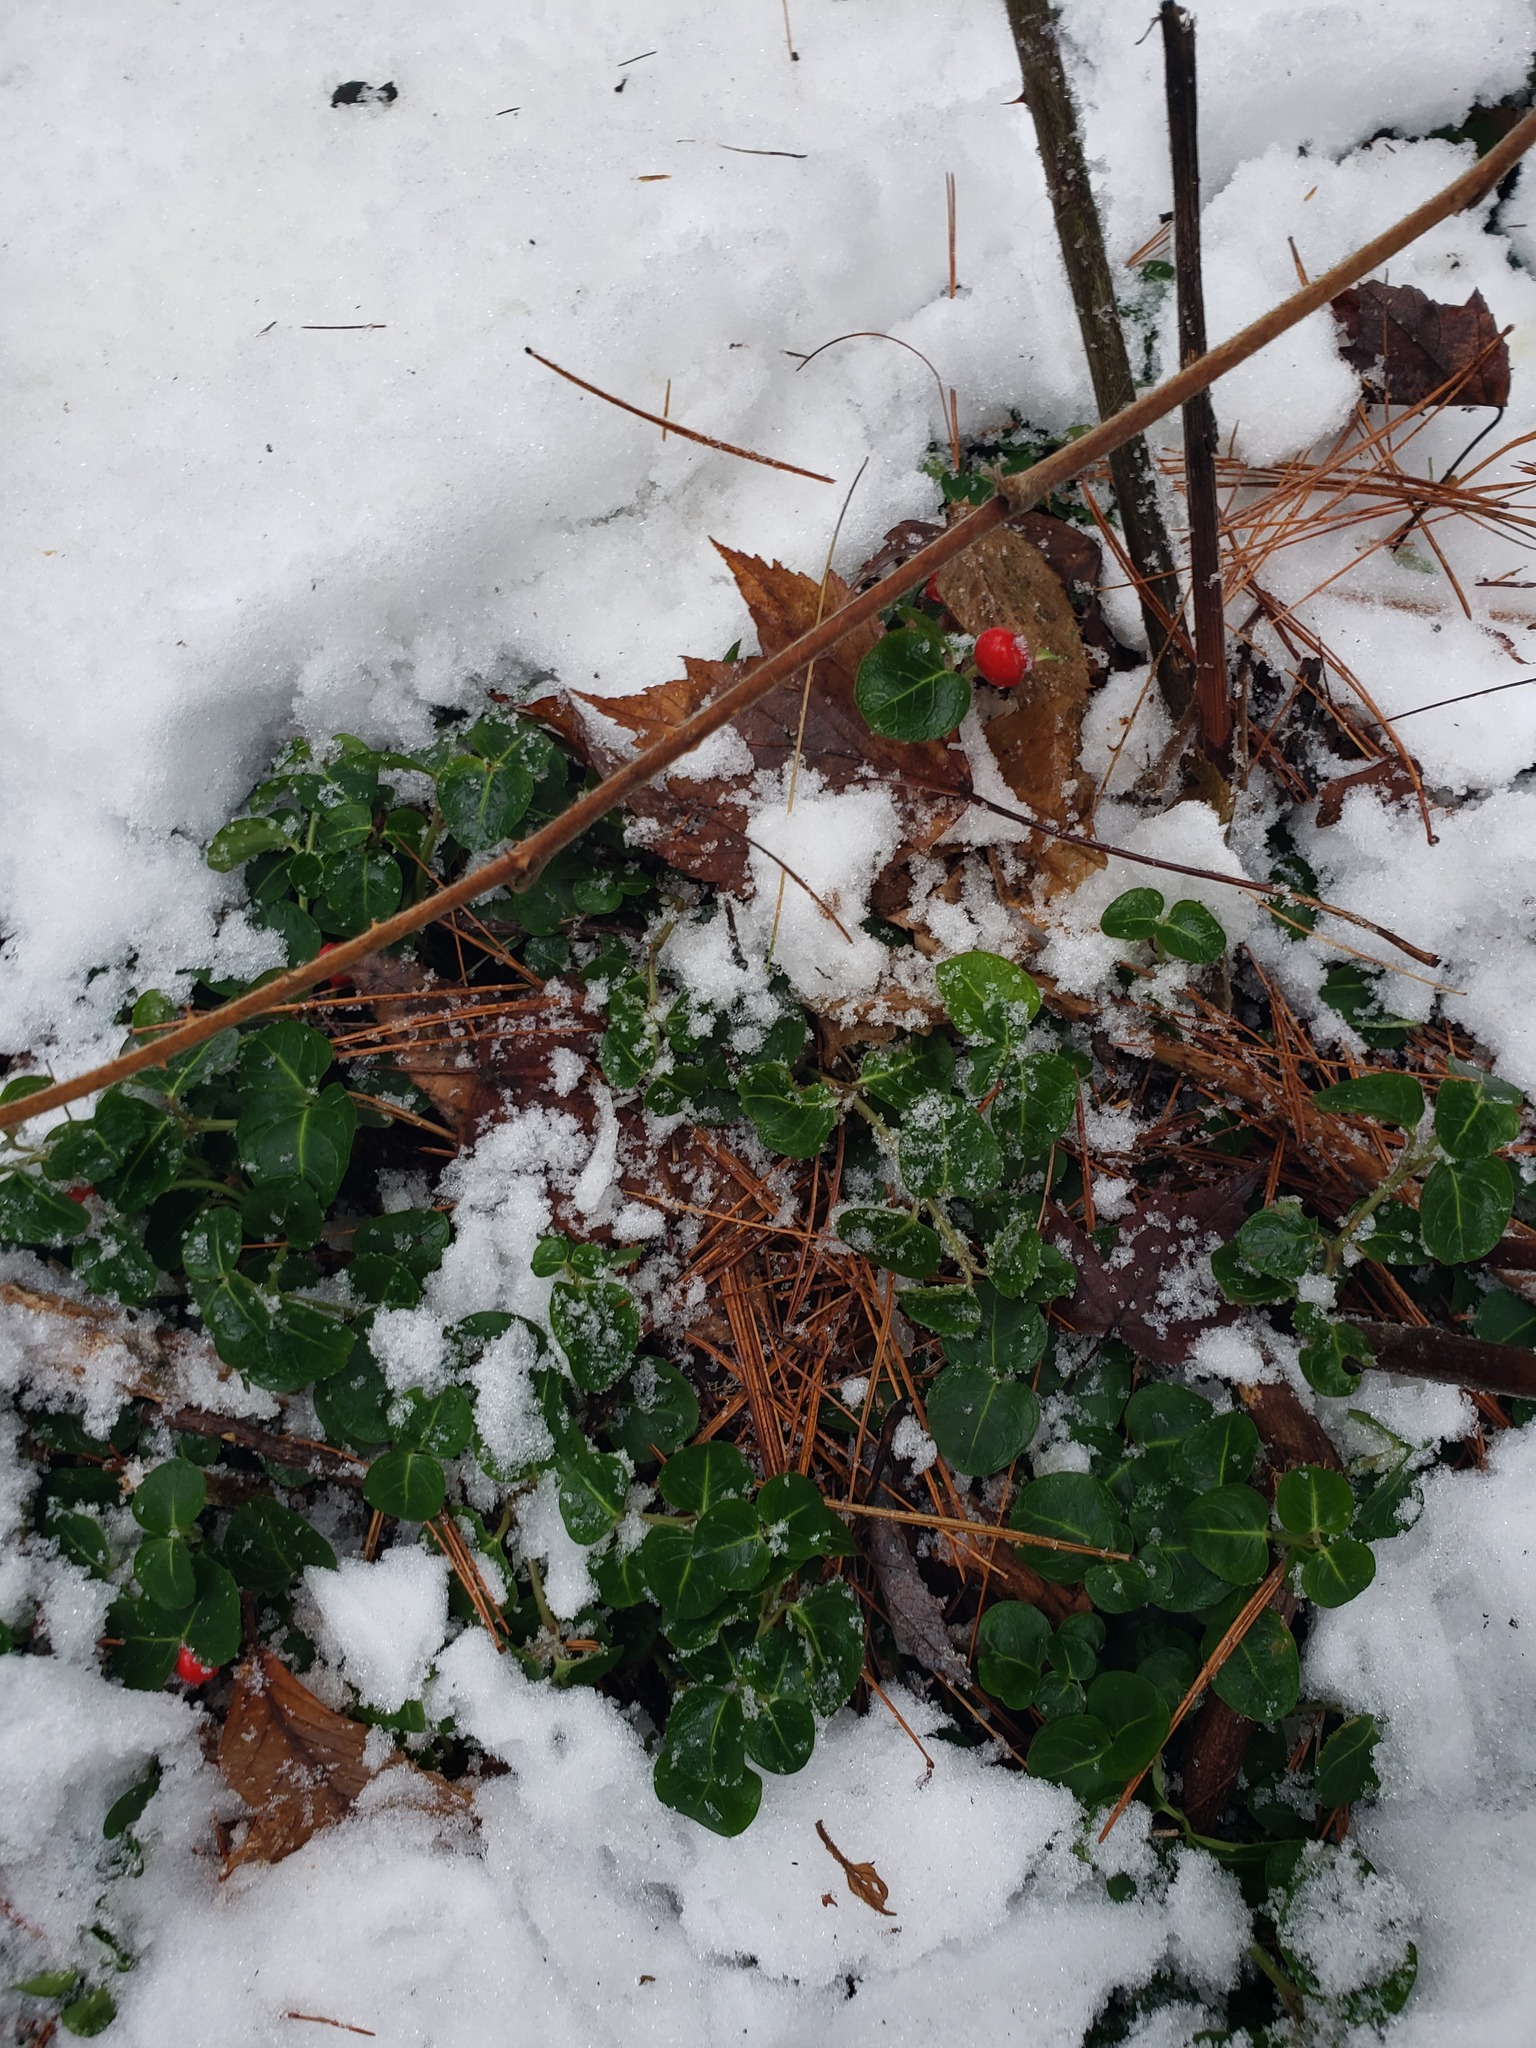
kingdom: Plantae
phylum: Tracheophyta
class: Magnoliopsida
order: Gentianales
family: Rubiaceae
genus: Mitchella
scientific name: Mitchella repens
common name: Partridge-berry
